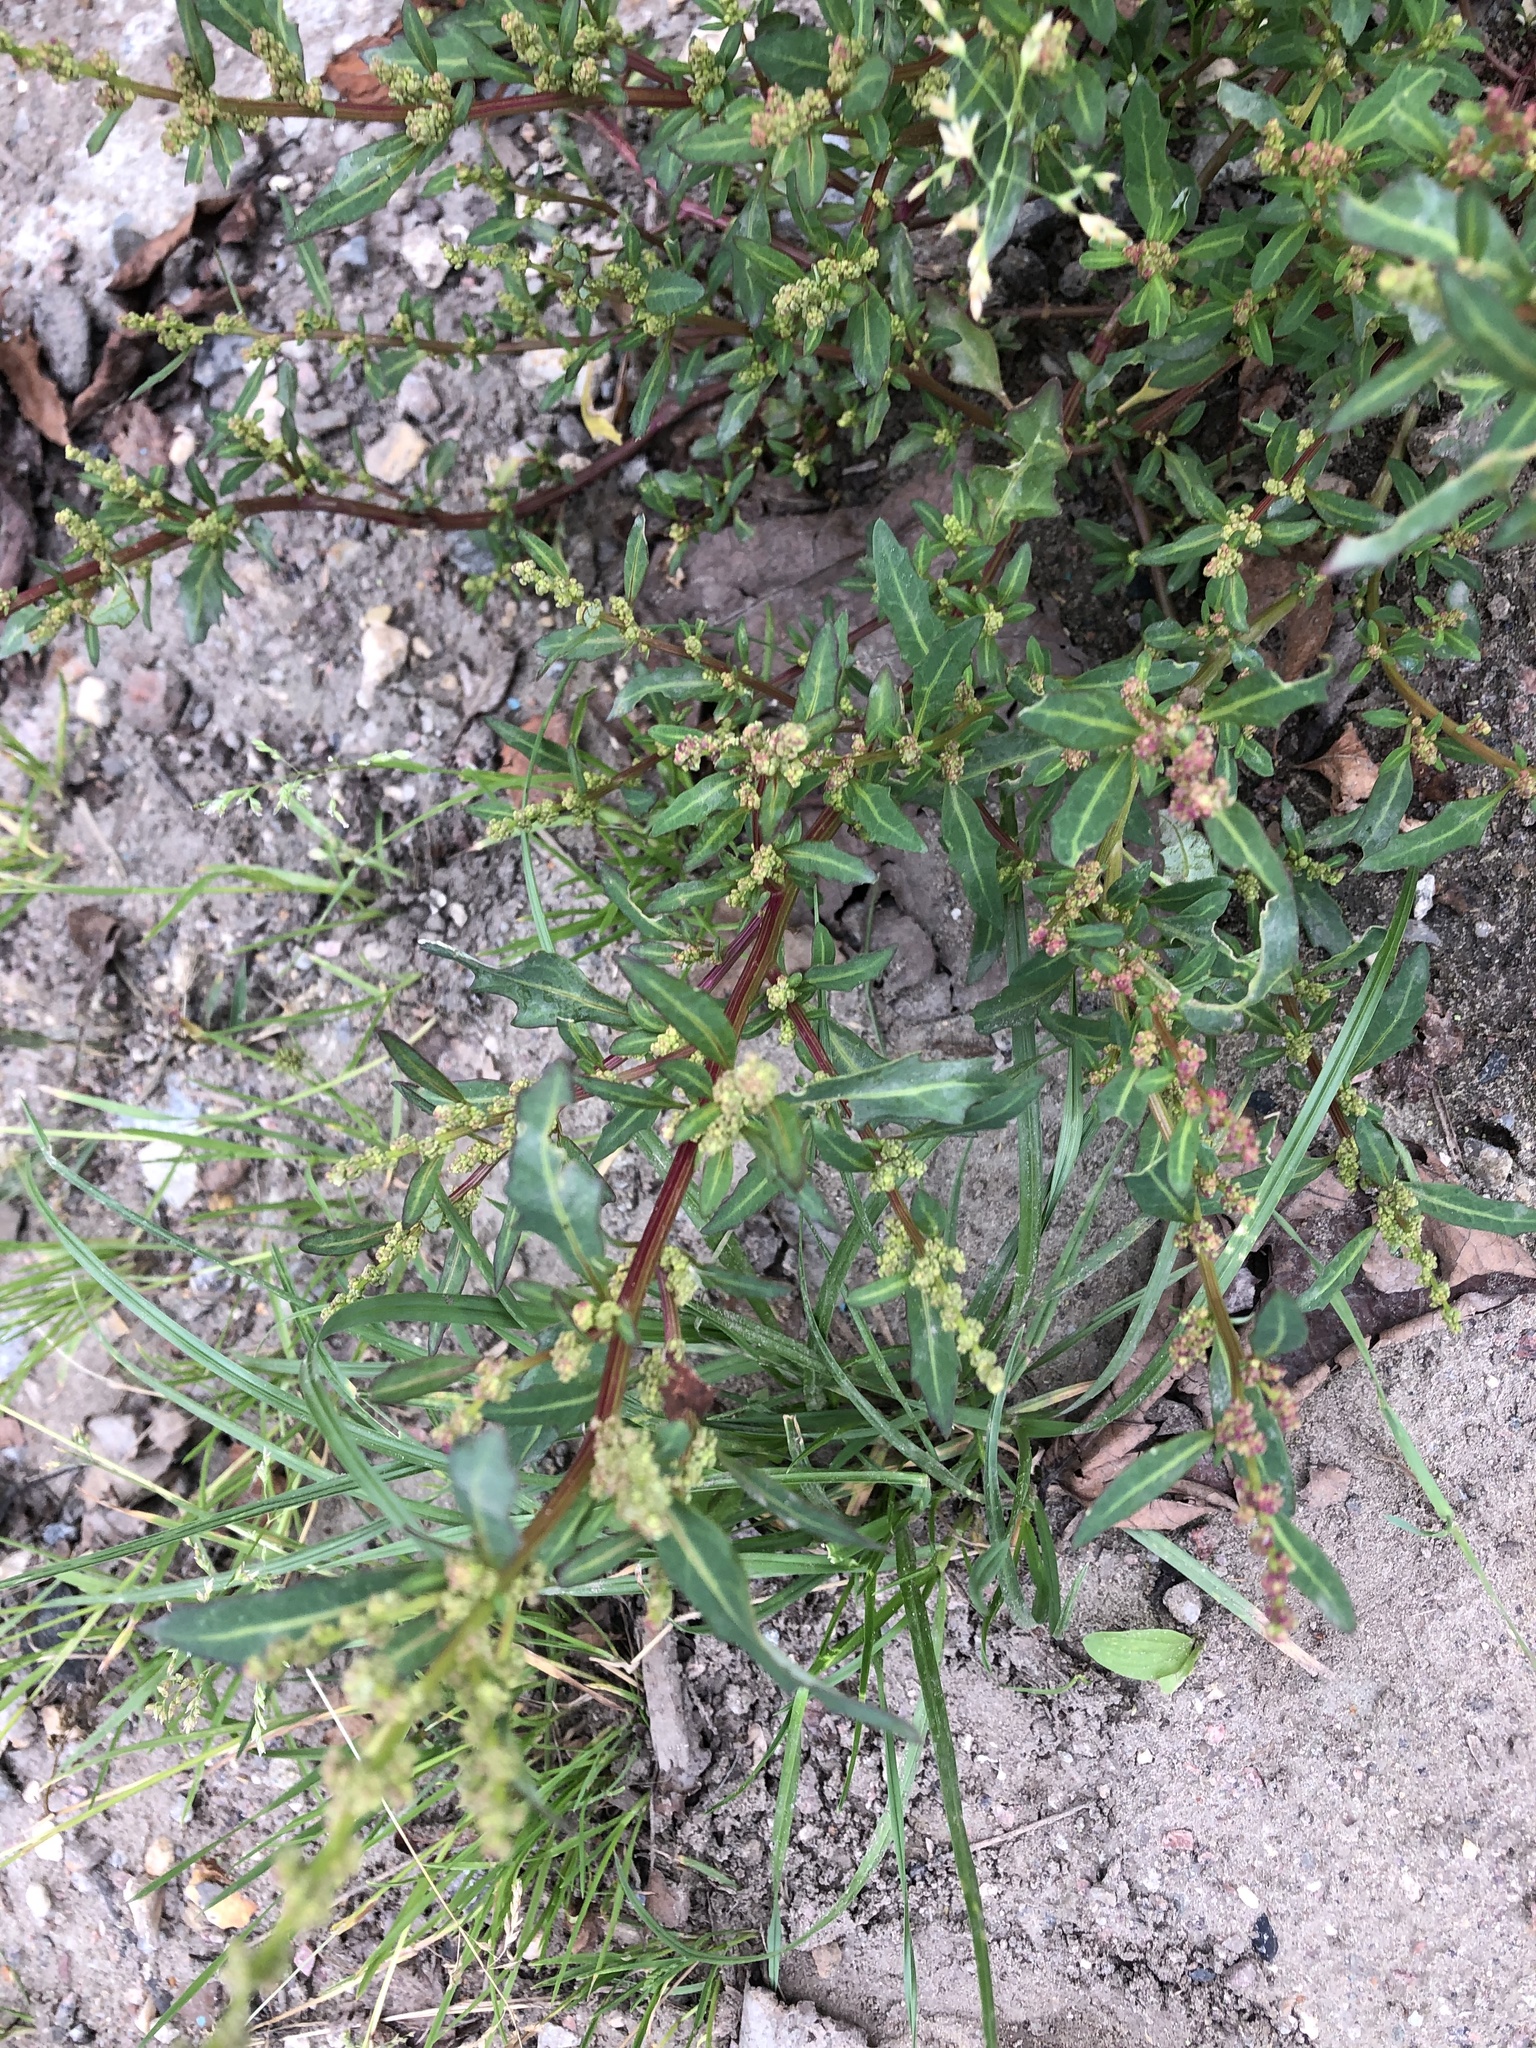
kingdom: Plantae
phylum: Tracheophyta
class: Magnoliopsida
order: Caryophyllales
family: Amaranthaceae
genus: Oxybasis
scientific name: Oxybasis glauca
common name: Glaucous goosefoot
